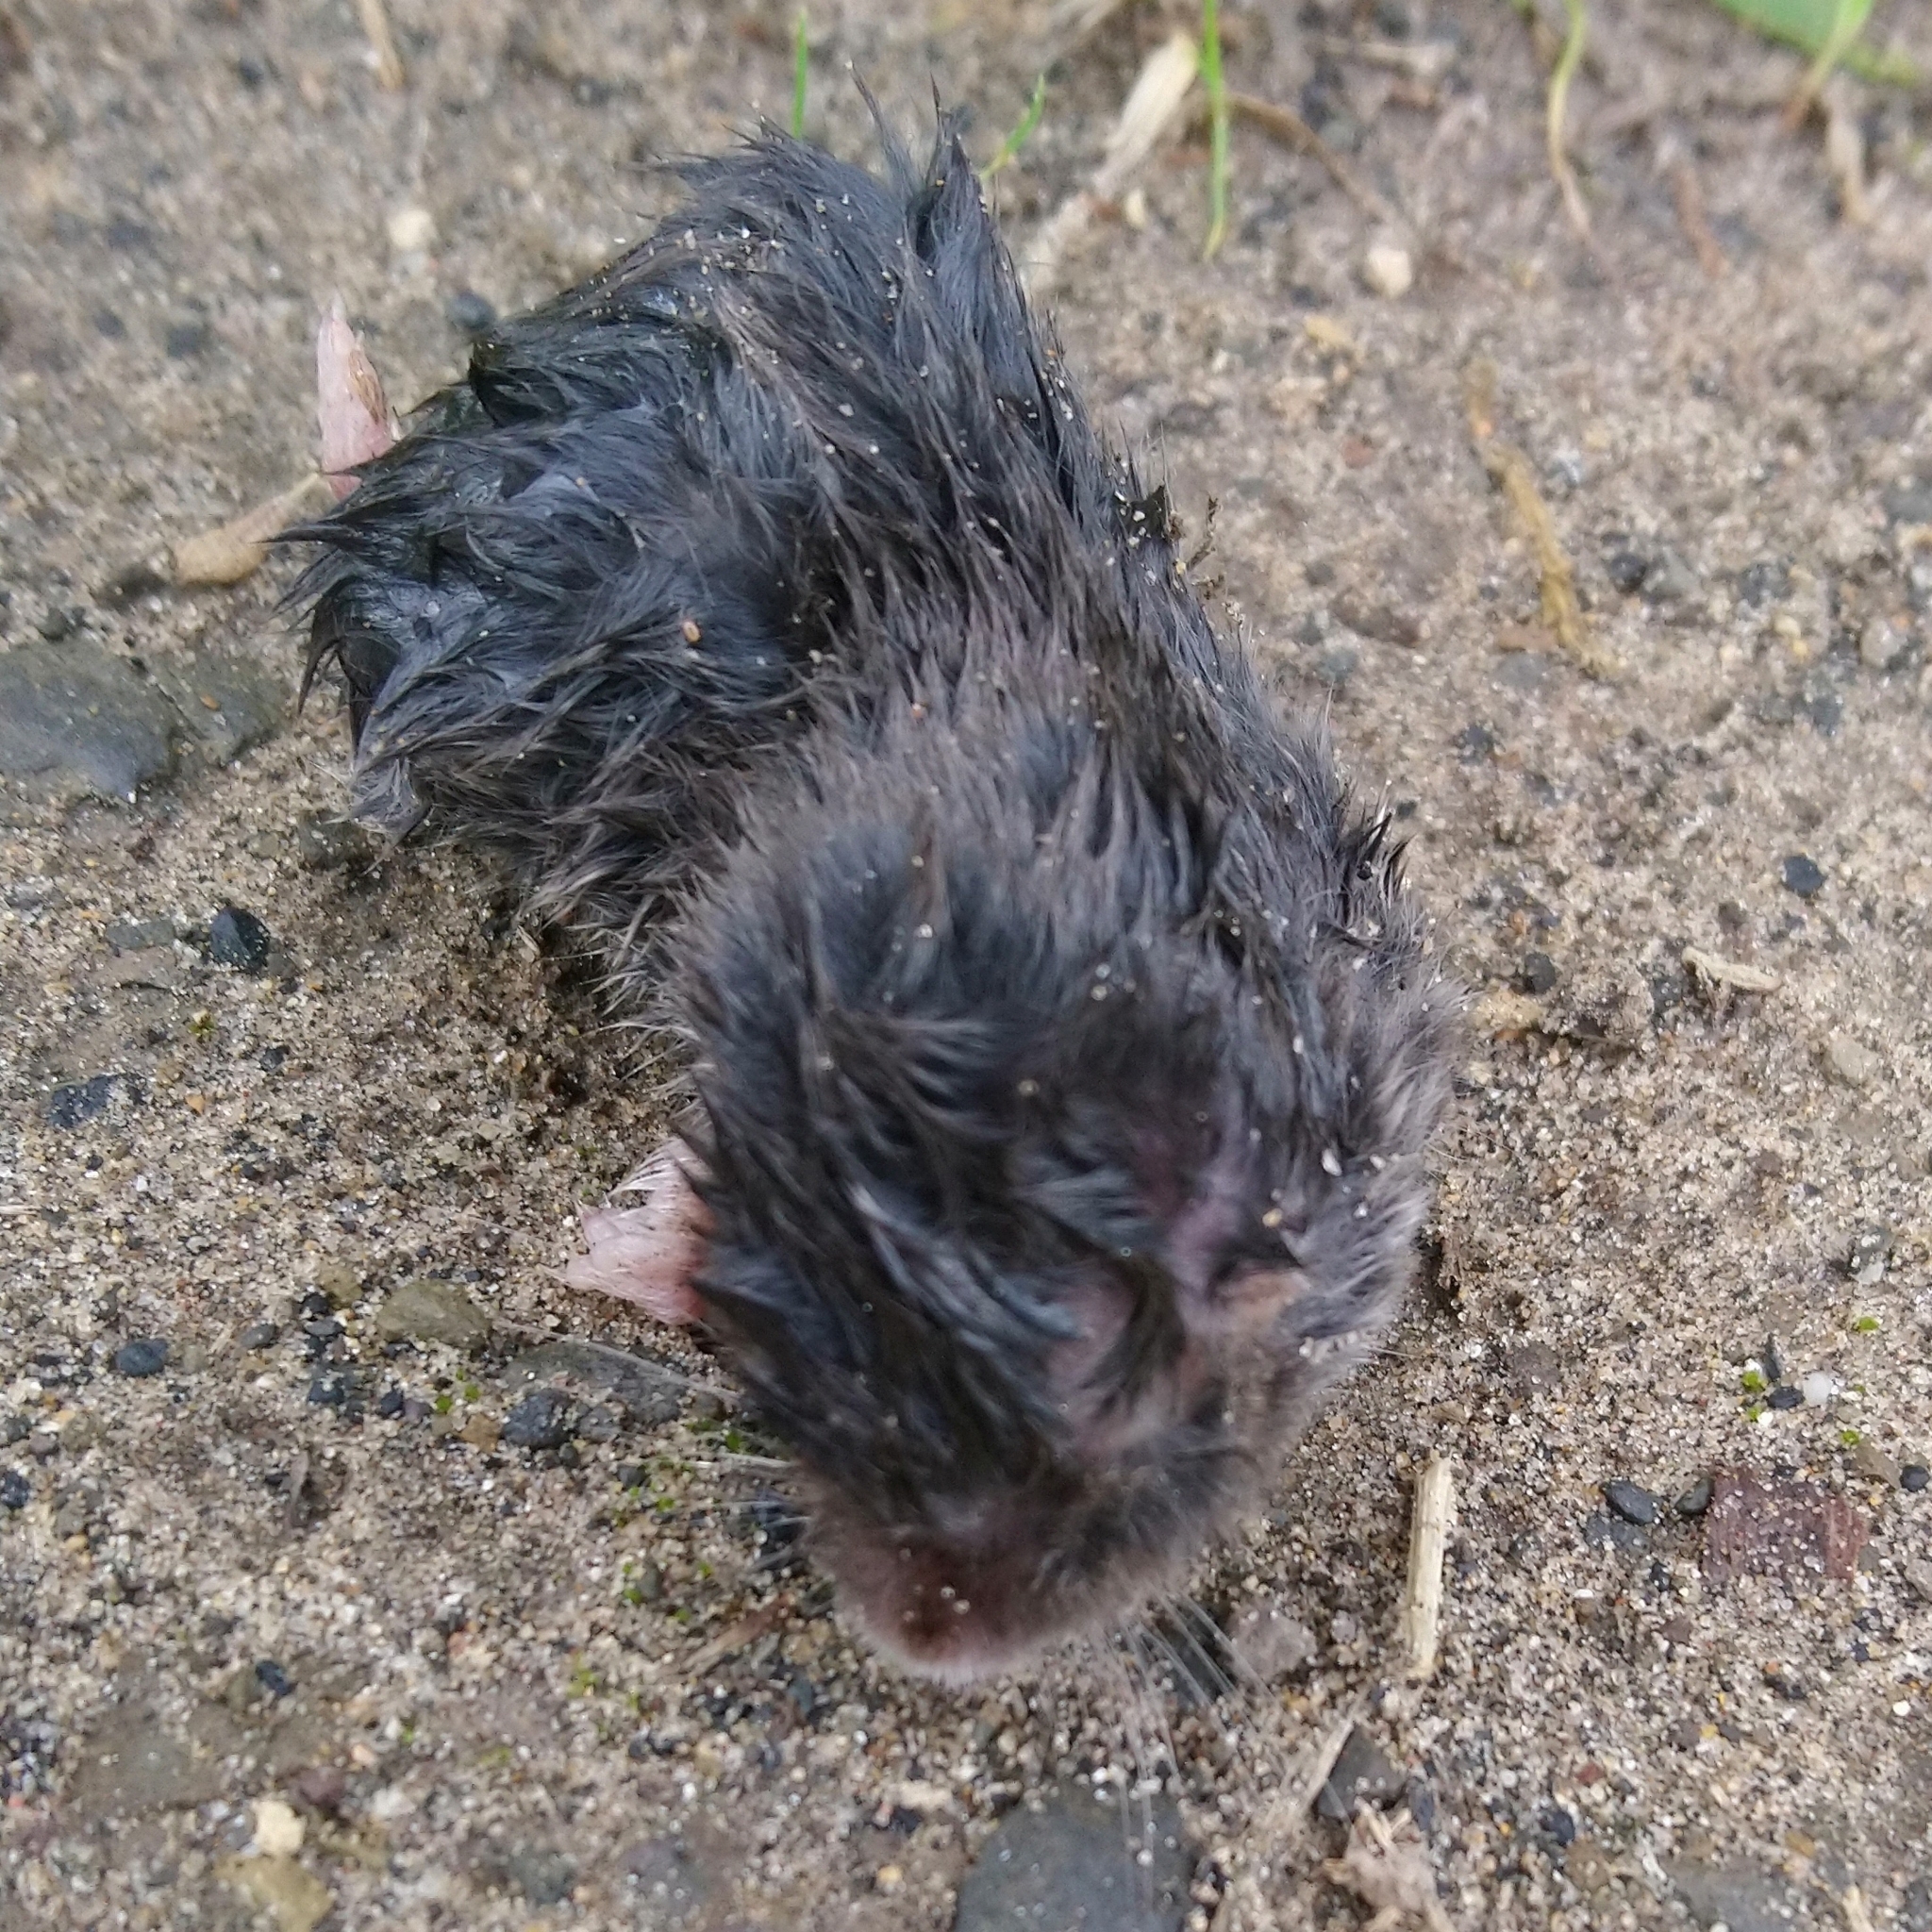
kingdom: Animalia
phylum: Chordata
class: Mammalia
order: Rodentia
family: Bathyergidae
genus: Cryptomys
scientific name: Cryptomys hottentotus
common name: Southern african mole-rat
